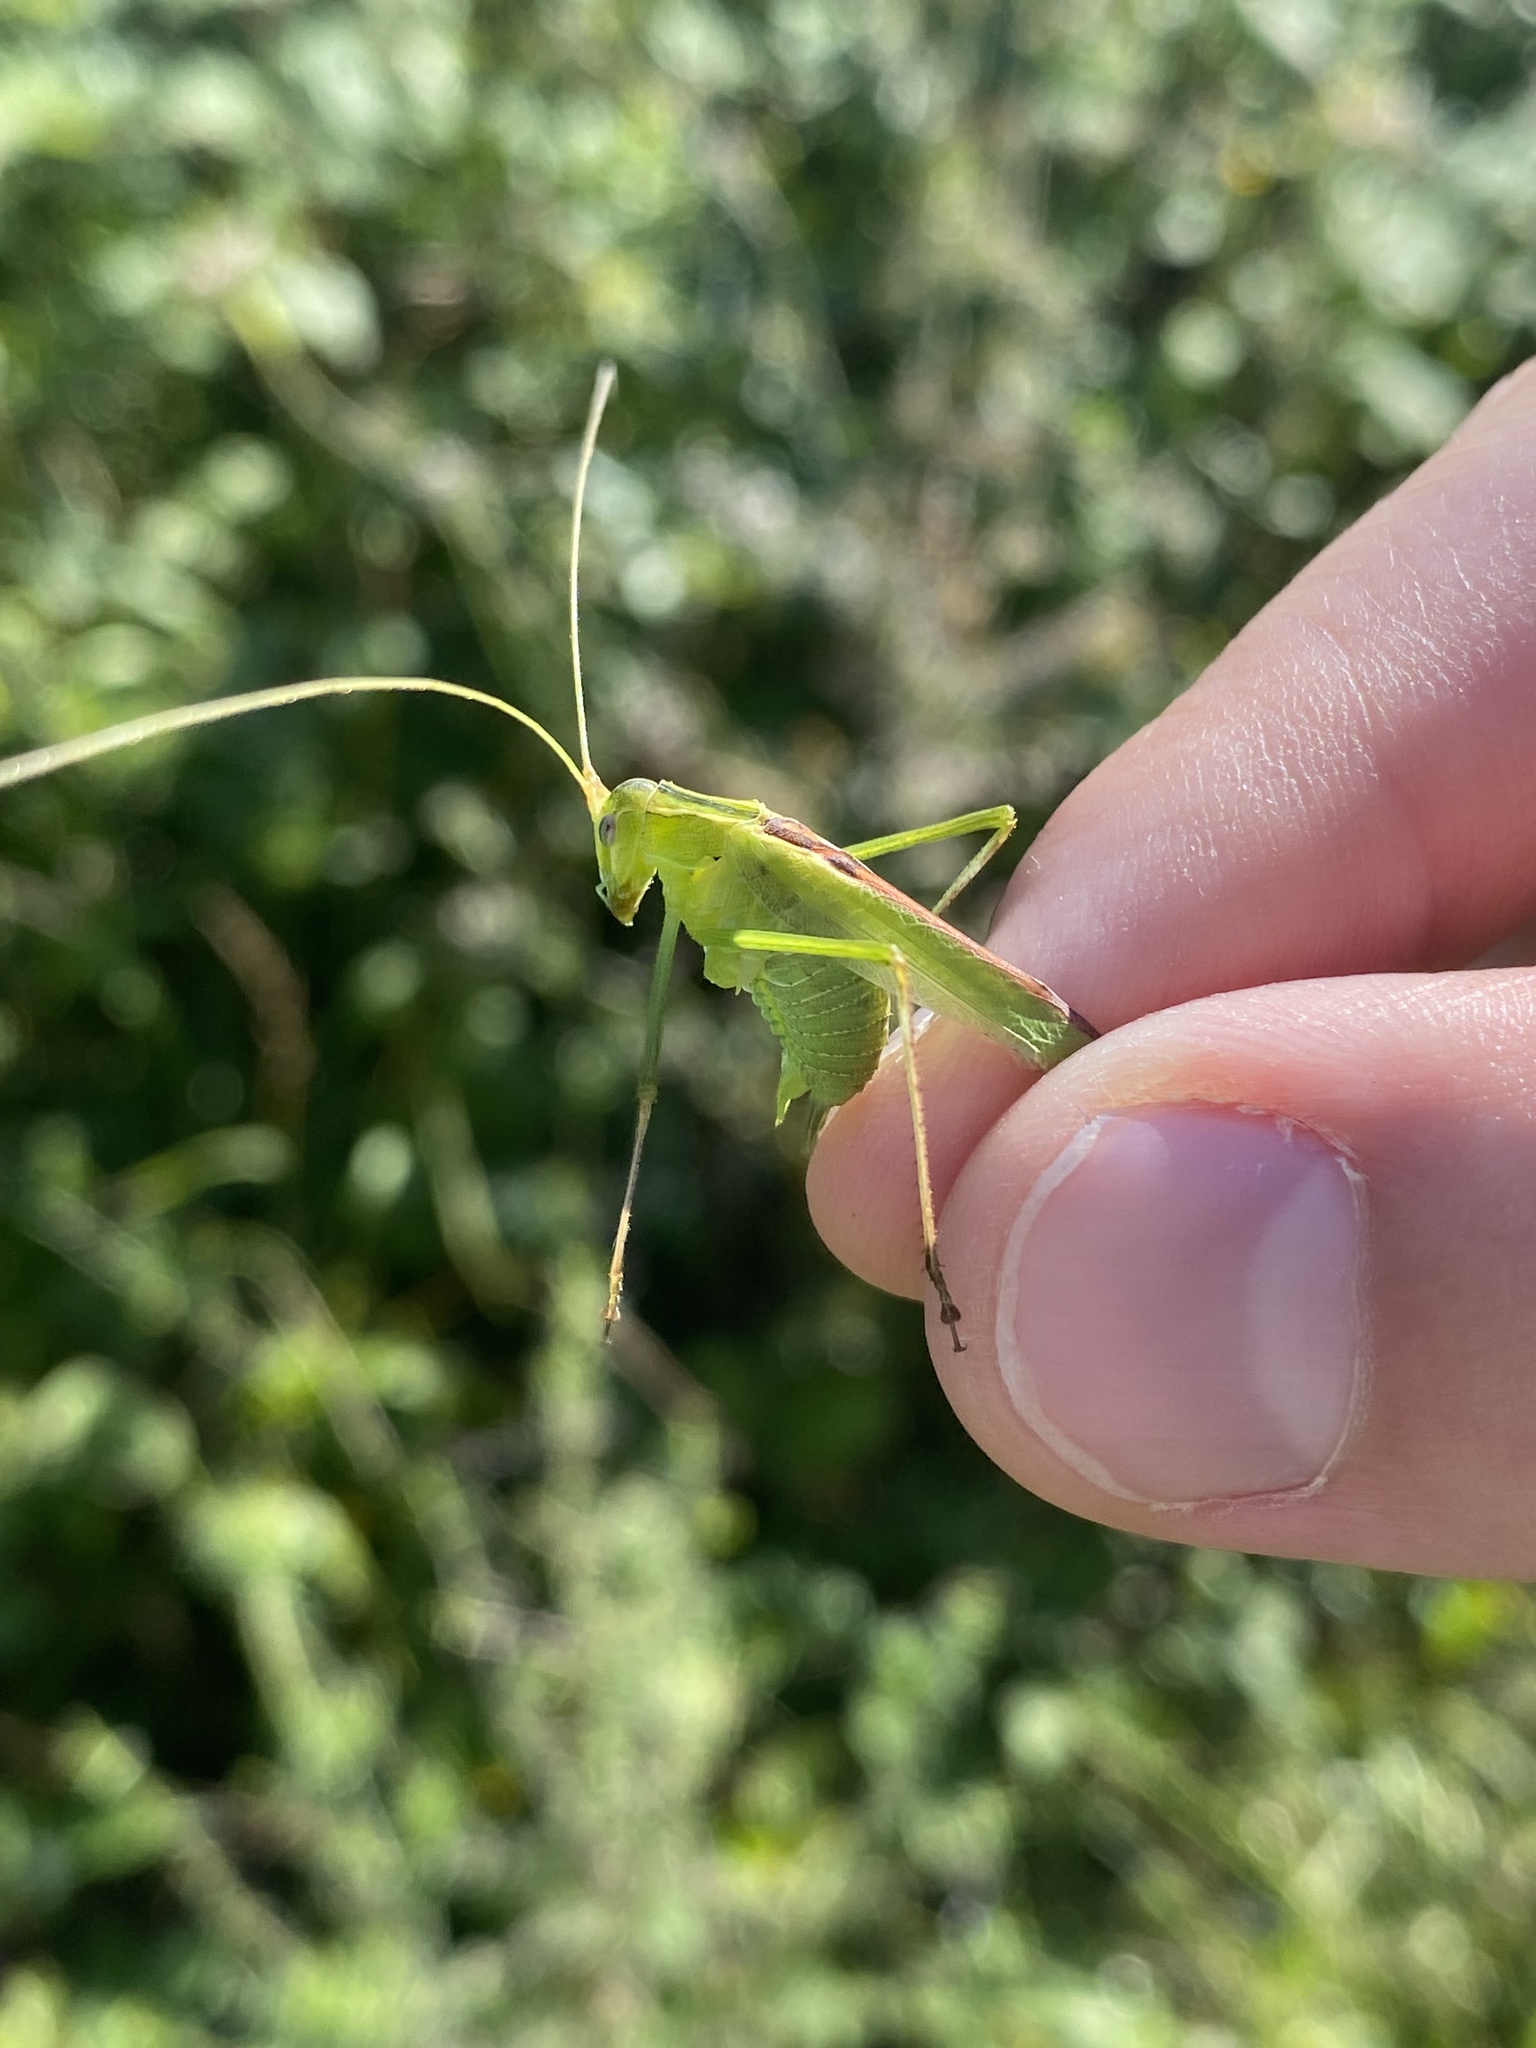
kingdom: Animalia
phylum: Arthropoda
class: Insecta
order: Orthoptera
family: Tettigoniidae
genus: Tylopsis
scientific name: Tylopsis lilifolia
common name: Lily bush-cricket
